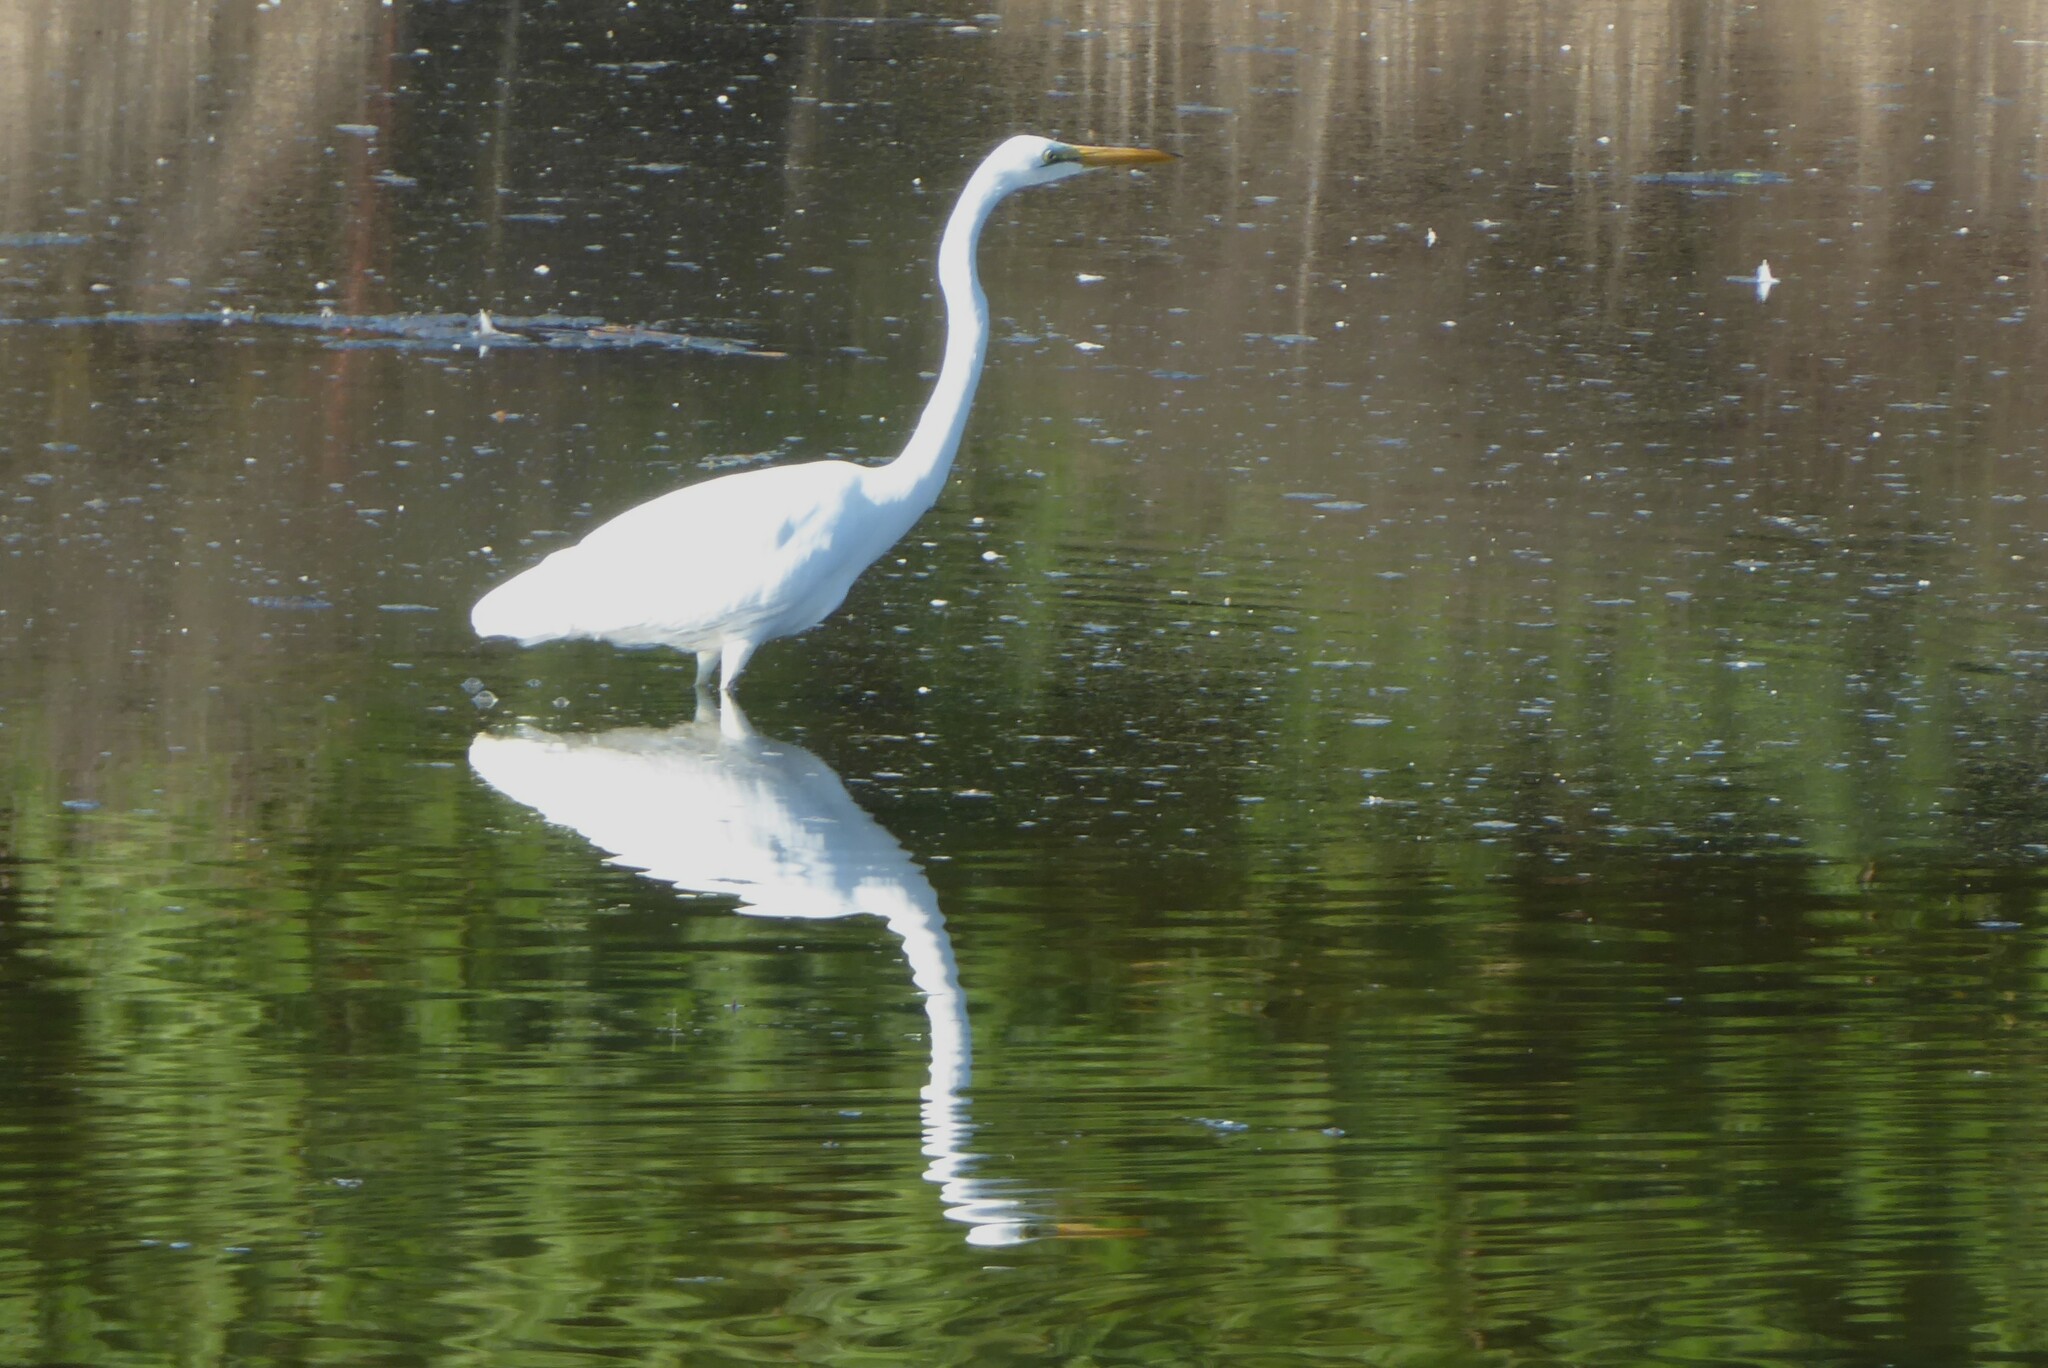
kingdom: Animalia
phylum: Chordata
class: Aves
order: Pelecaniformes
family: Ardeidae
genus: Ardea
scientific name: Ardea modesta
